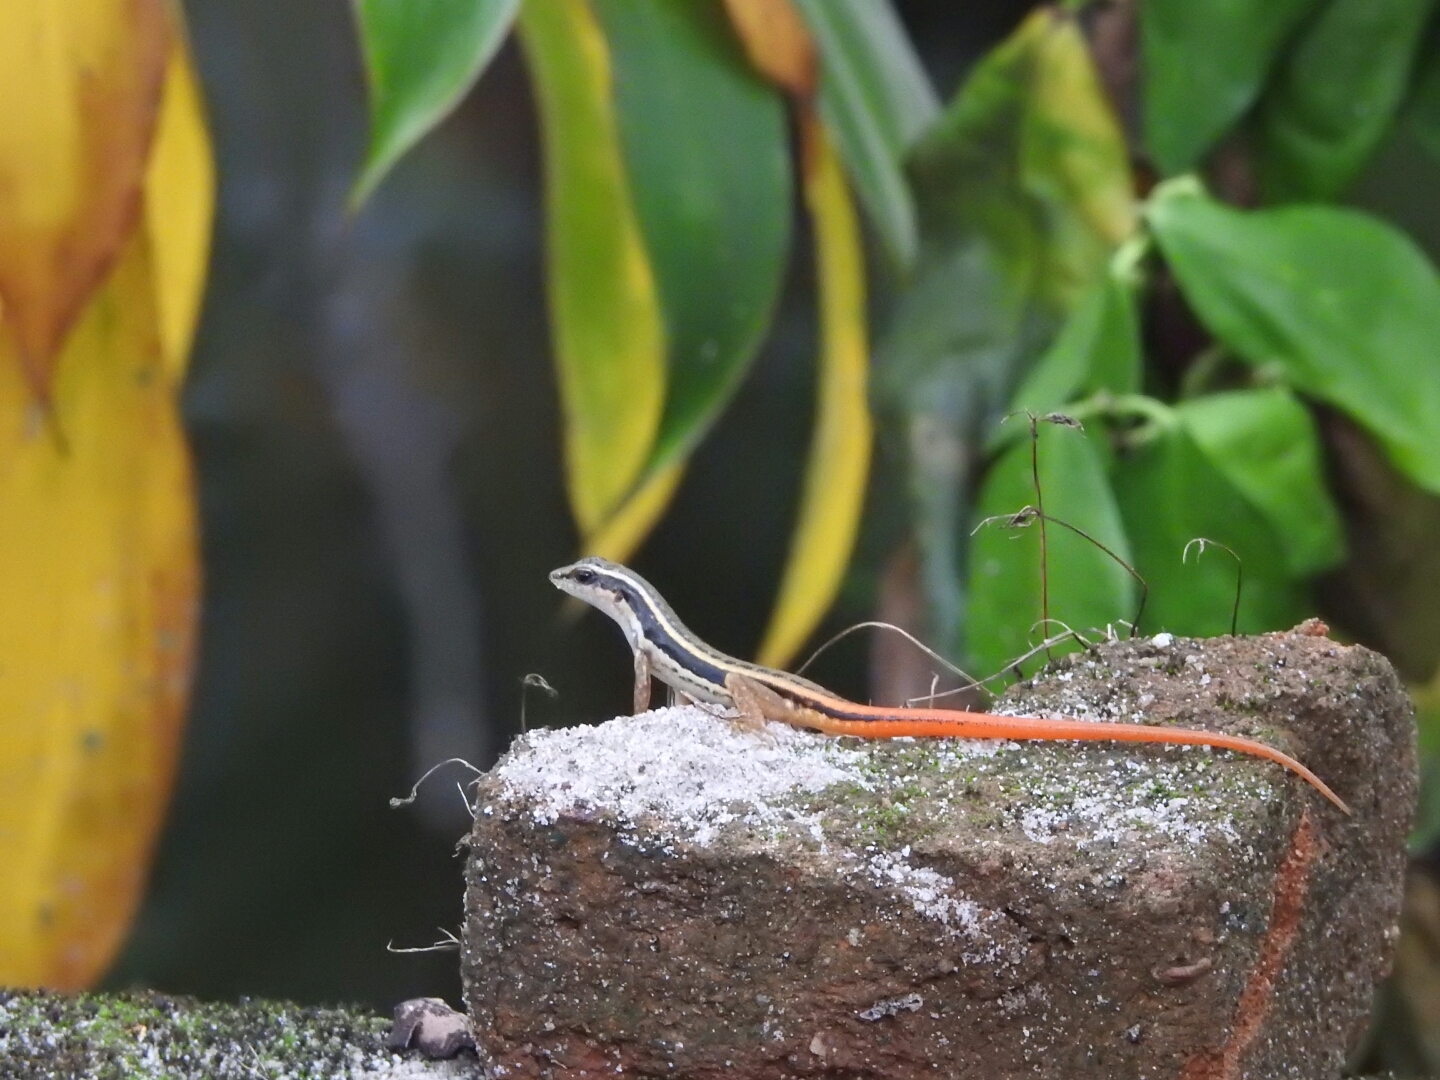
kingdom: Animalia
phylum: Chordata
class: Squamata
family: Scincidae
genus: Sphenomorphus
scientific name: Sphenomorphus dussumieri
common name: Dussumier's forest skink
